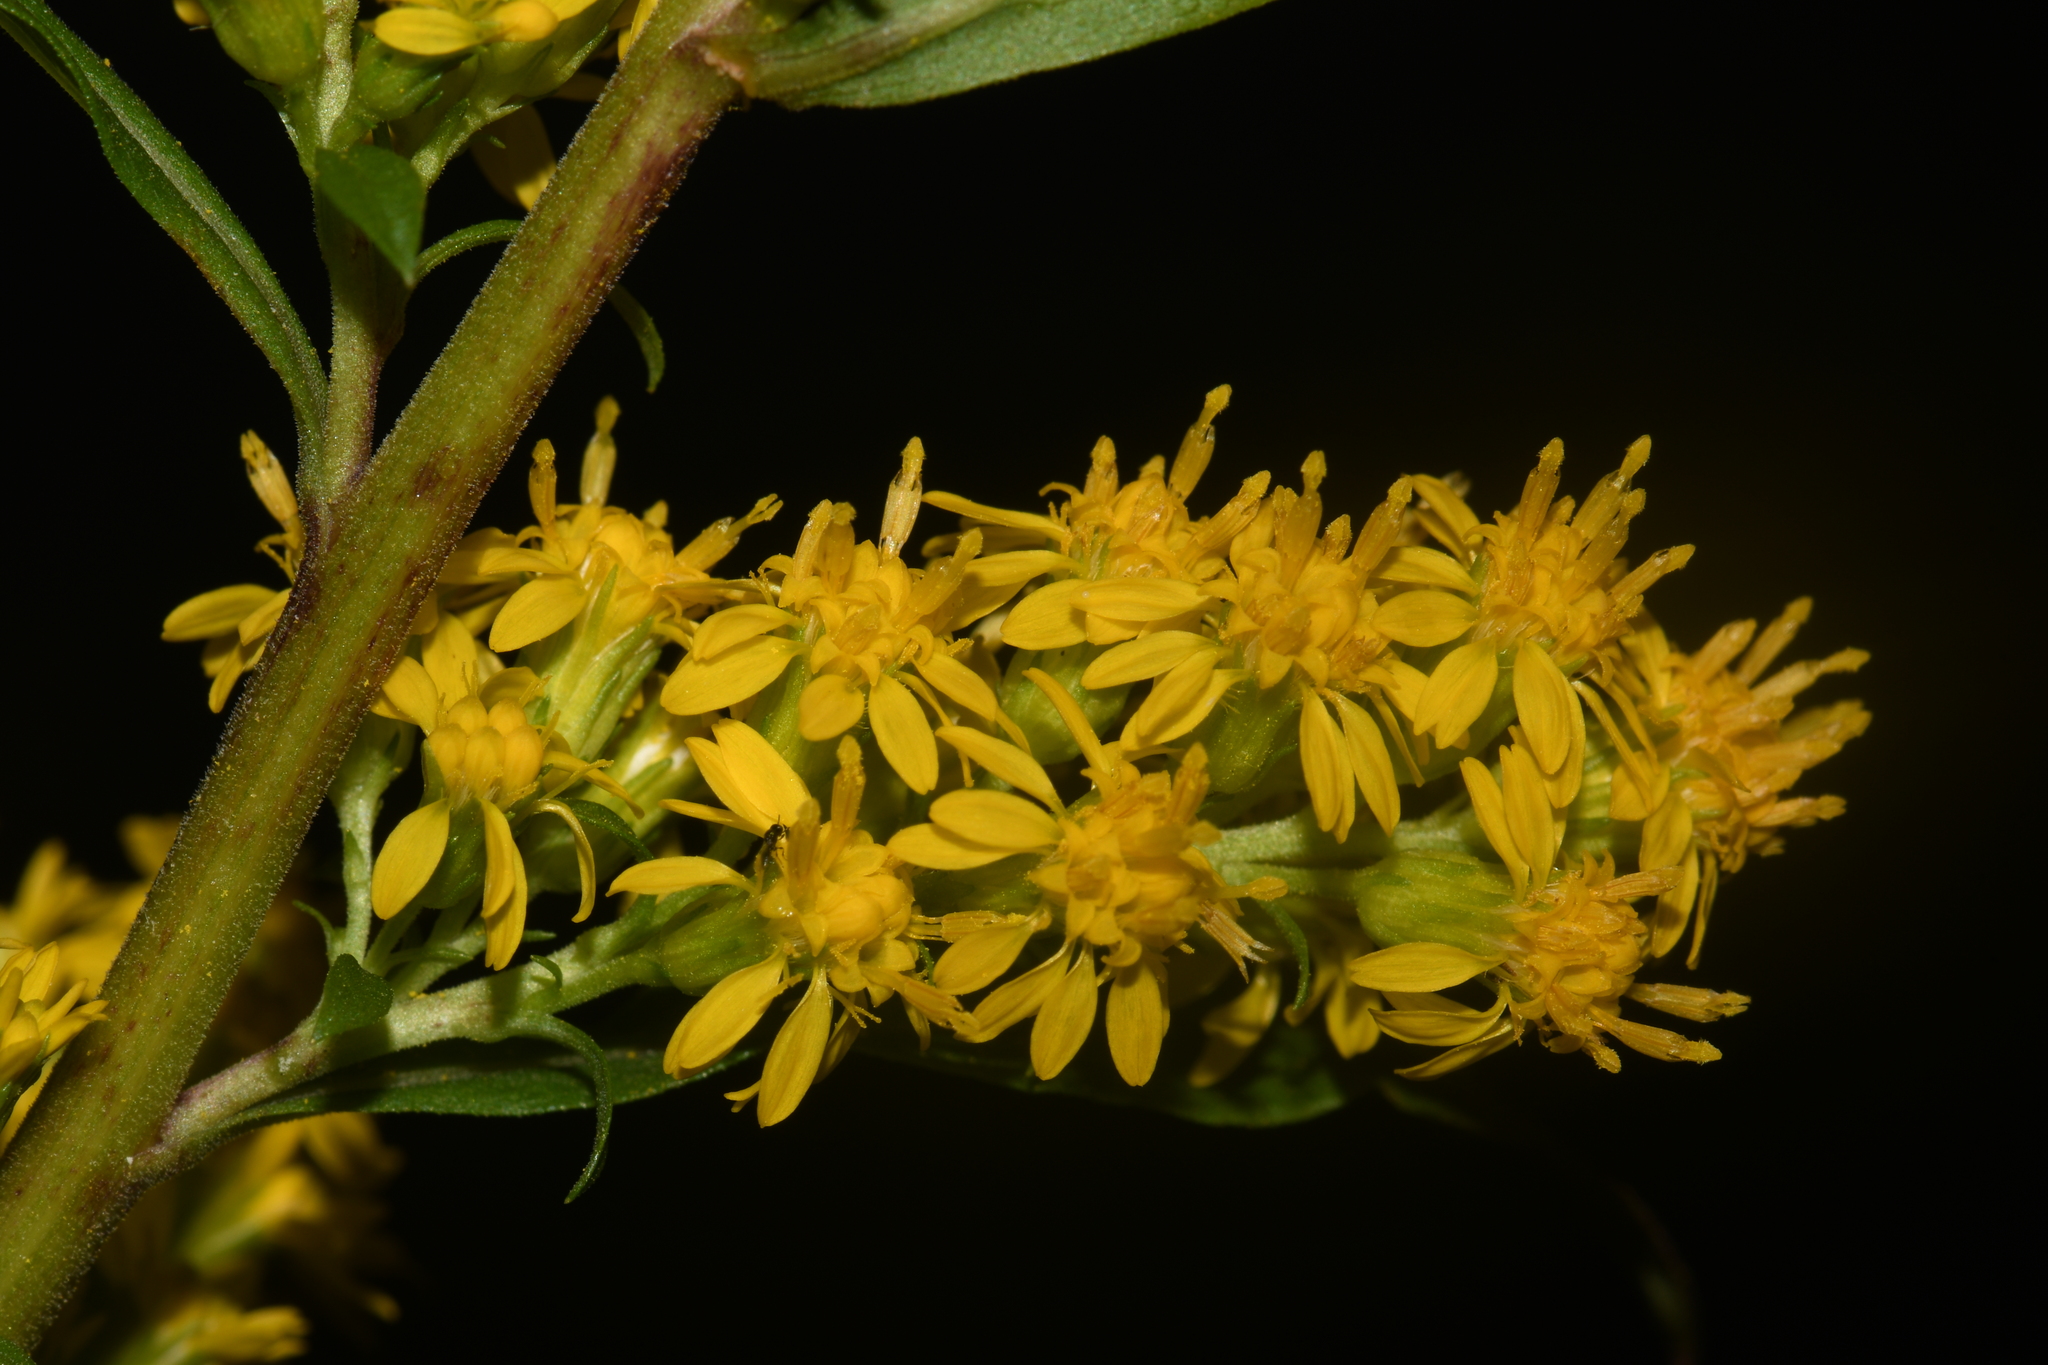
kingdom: Plantae
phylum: Tracheophyta
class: Magnoliopsida
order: Asterales
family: Asteraceae
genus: Solidago
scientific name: Solidago puberula
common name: Downy goldenrod
